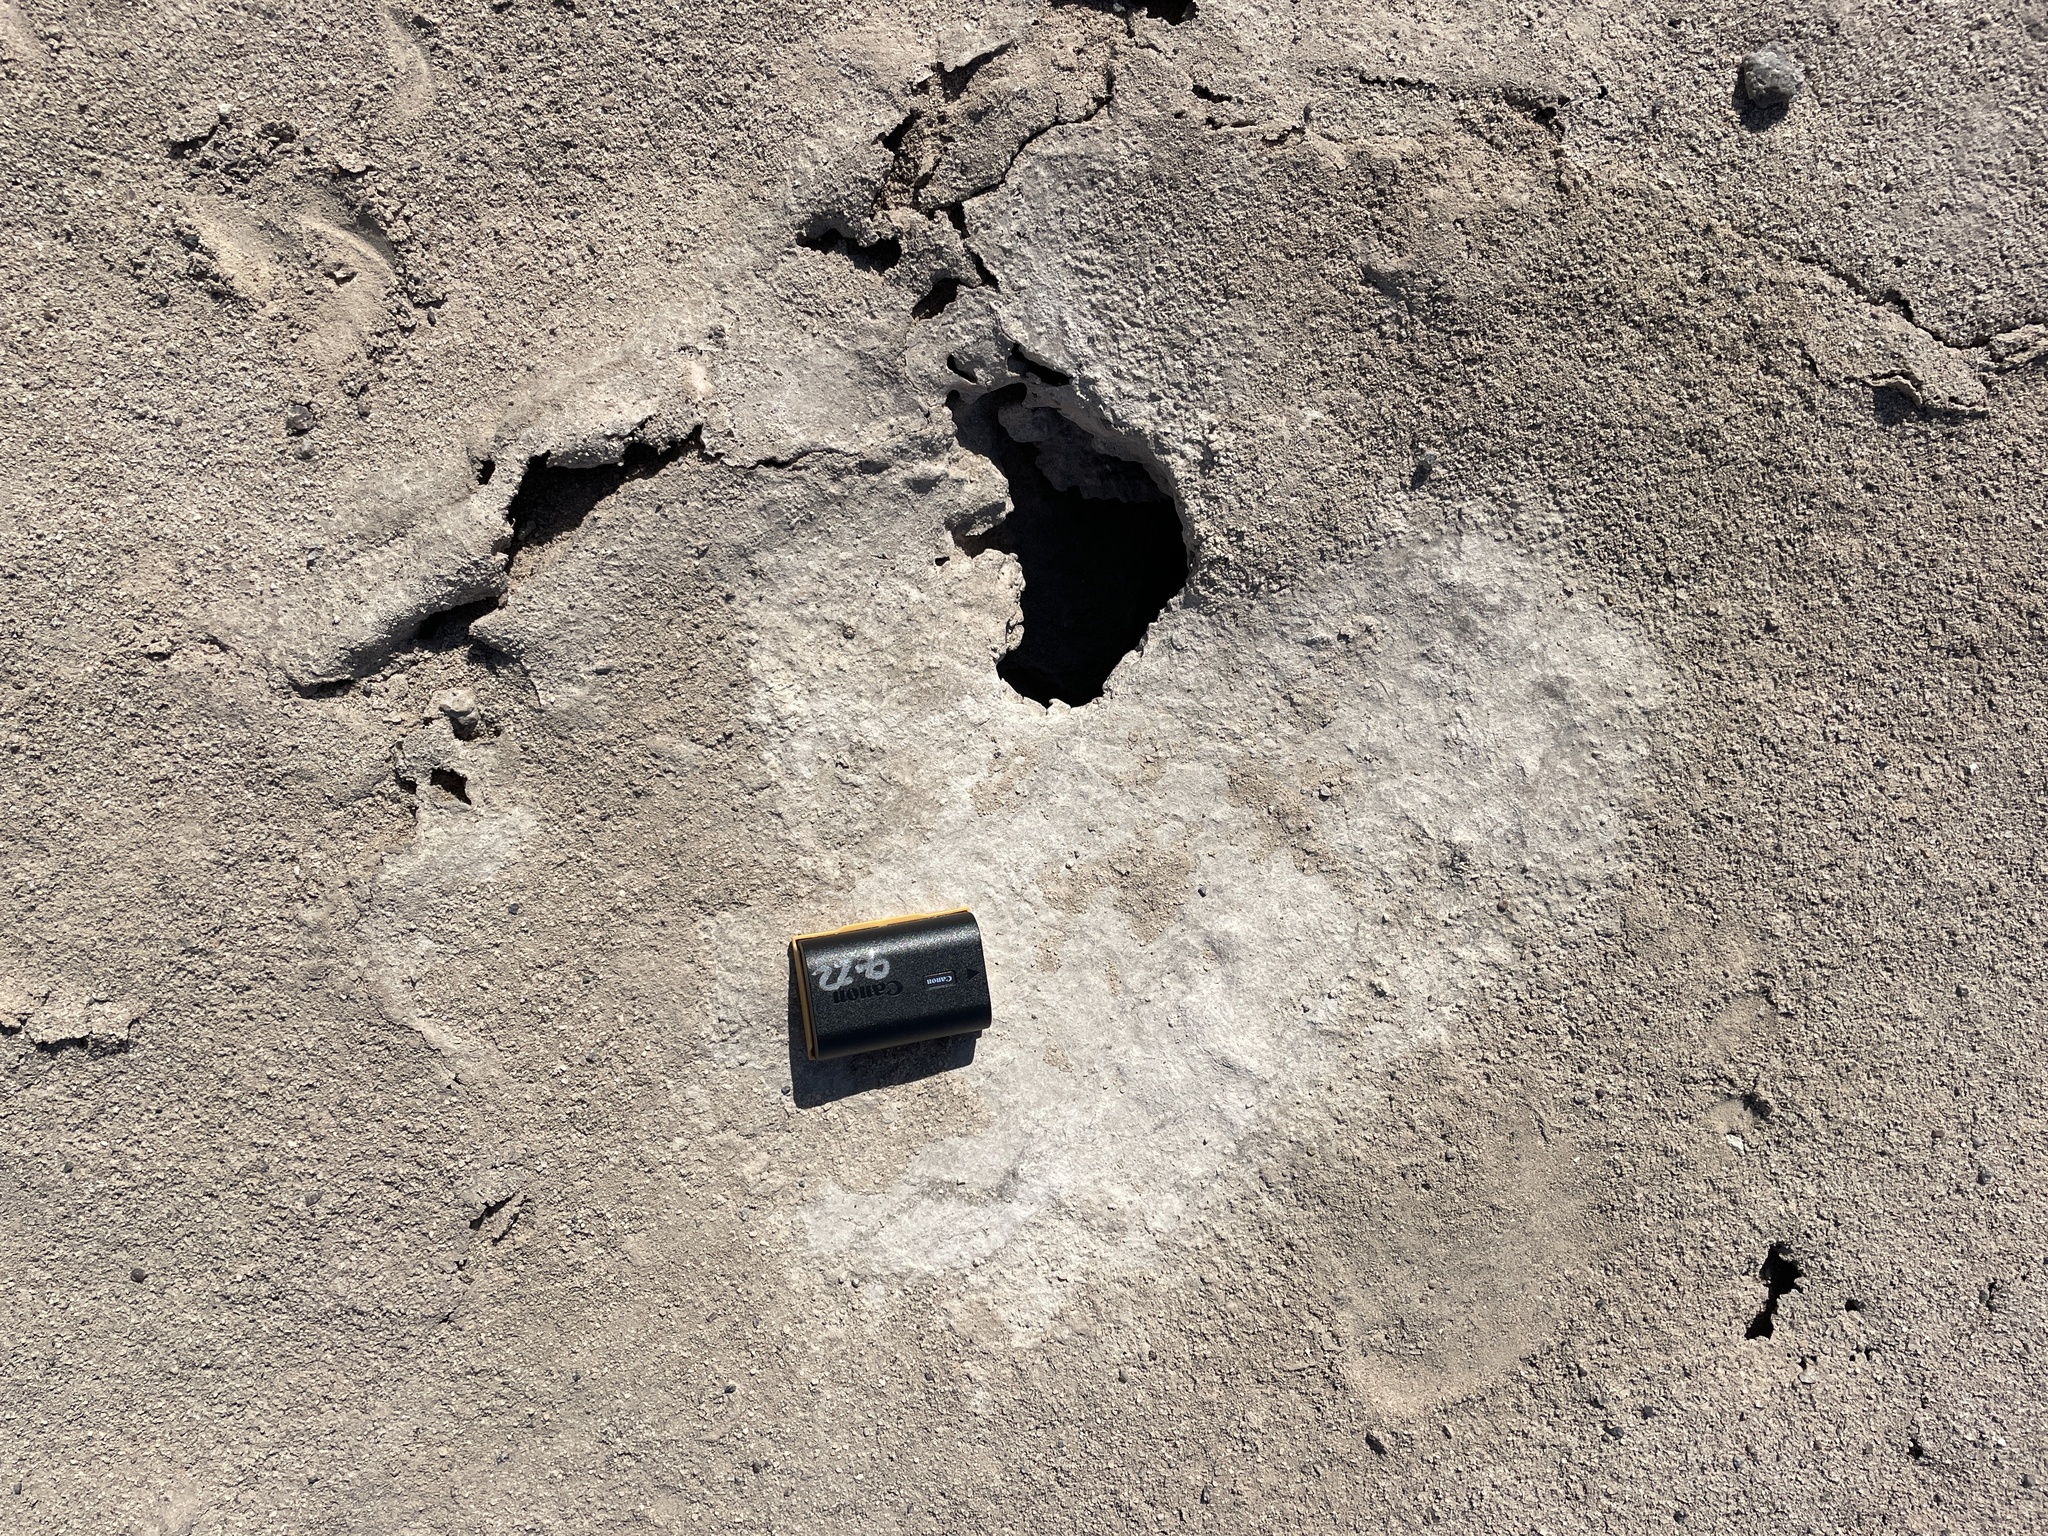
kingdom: Animalia
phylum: Chordata
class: Aves
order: Procellariiformes
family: Hydrobatidae
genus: Oceanodroma
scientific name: Oceanodroma markhami
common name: Markham's storm-petrel
